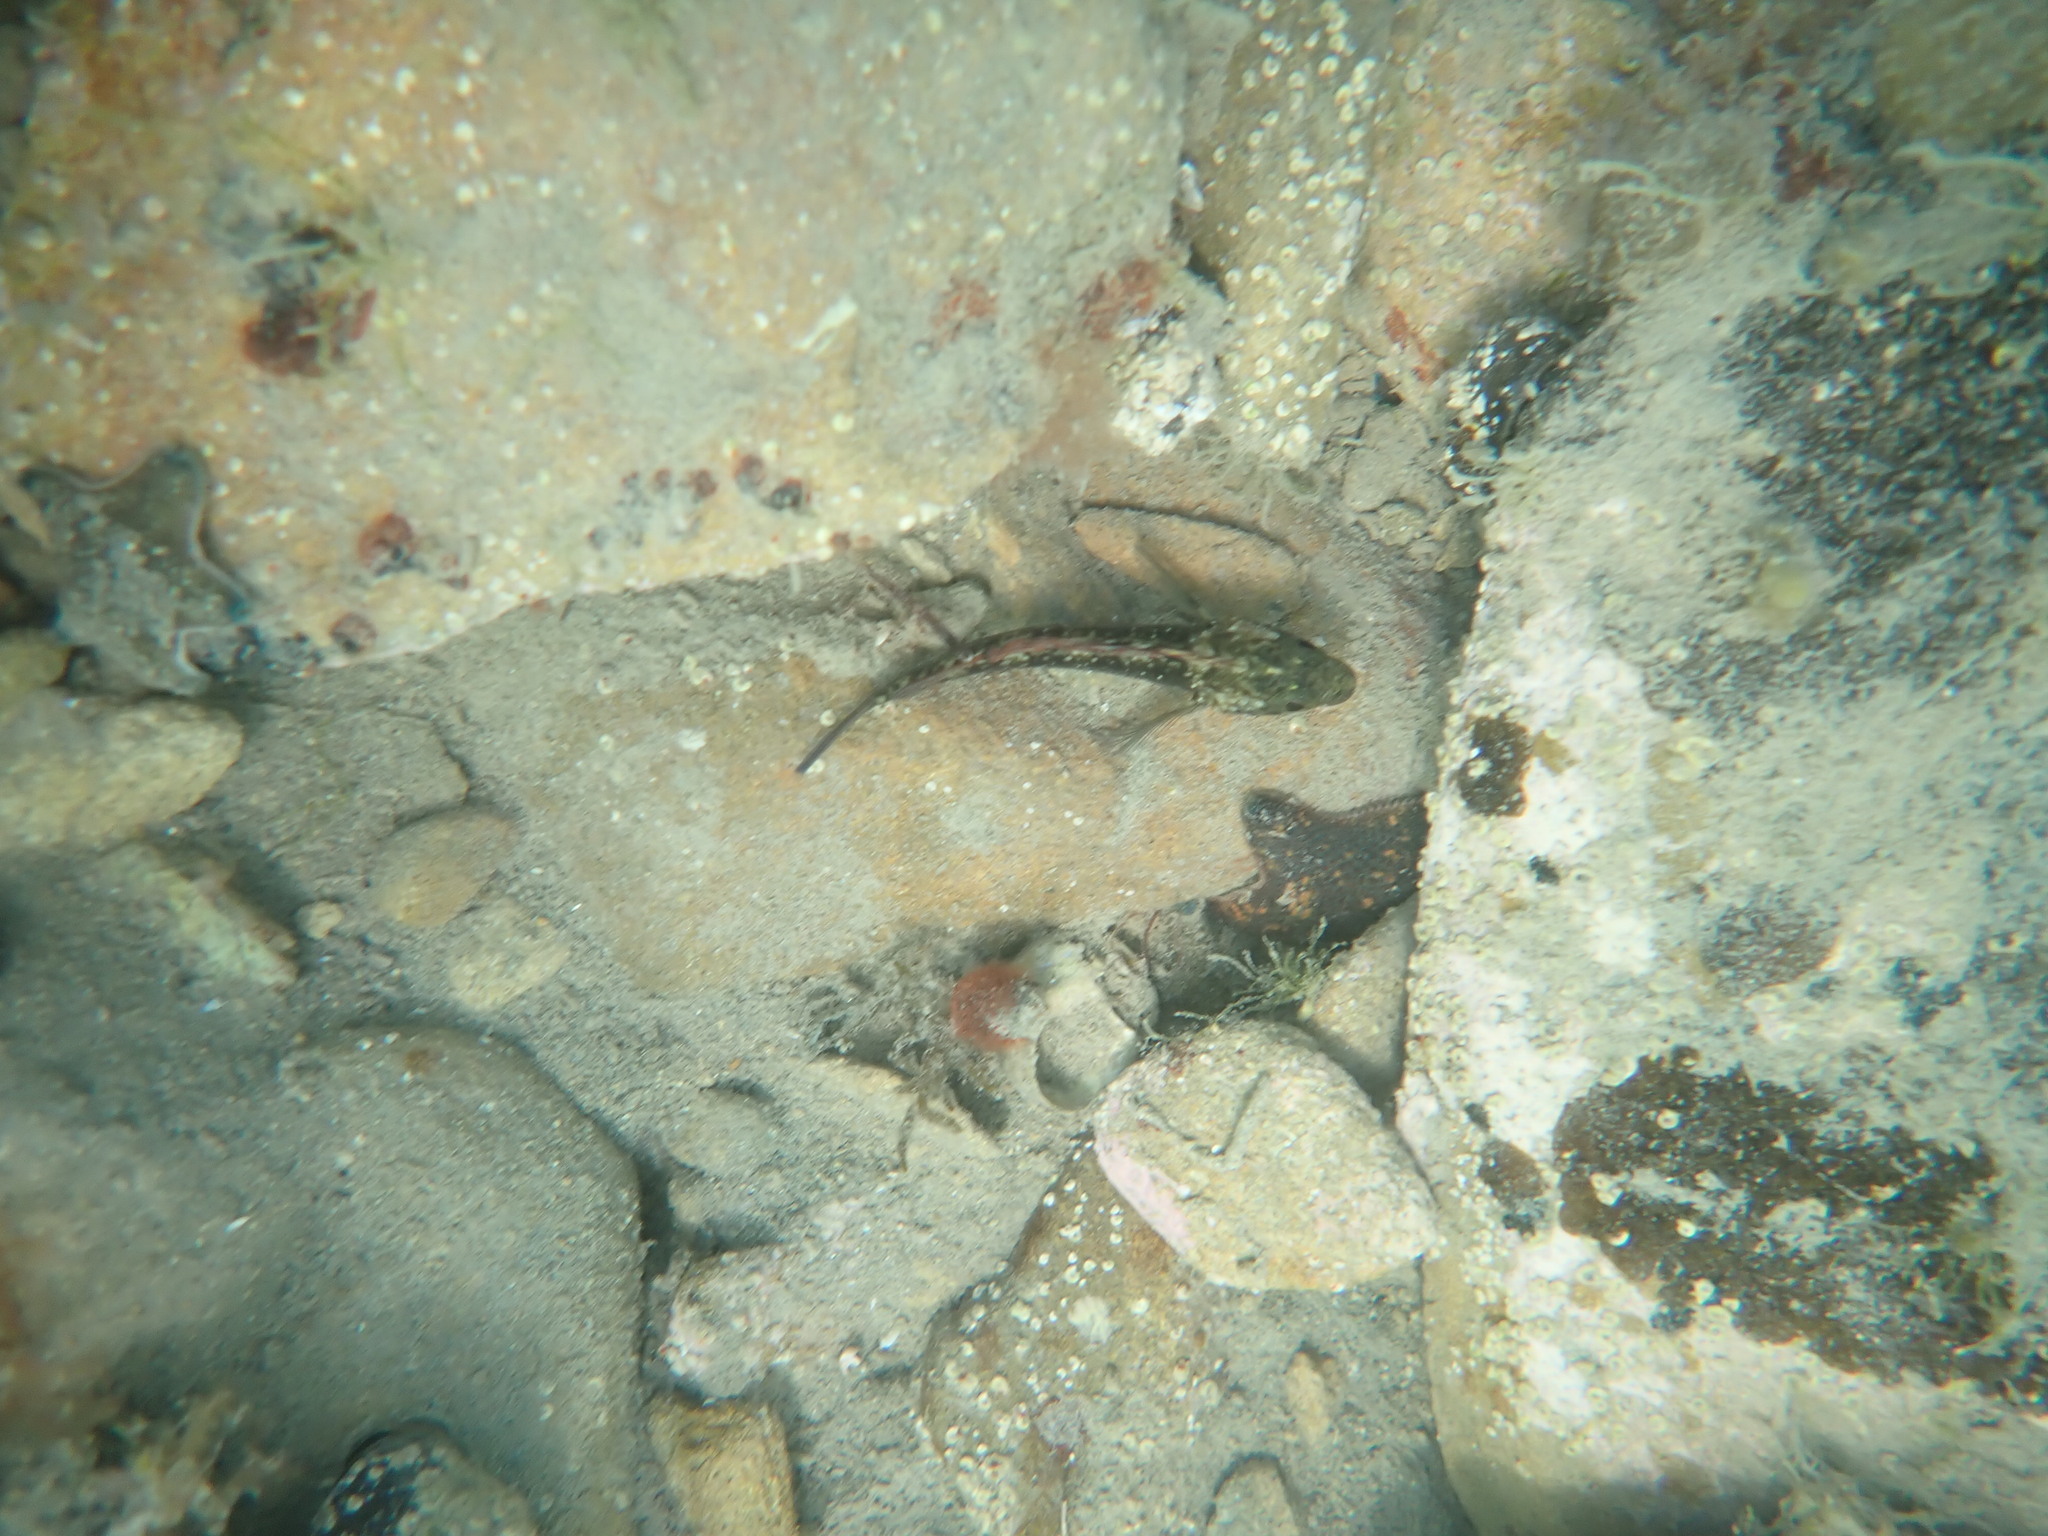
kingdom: Animalia
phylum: Chordata
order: Perciformes
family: Tripterygiidae
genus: Forsterygion
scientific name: Forsterygion lapillum
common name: Common triplefin
